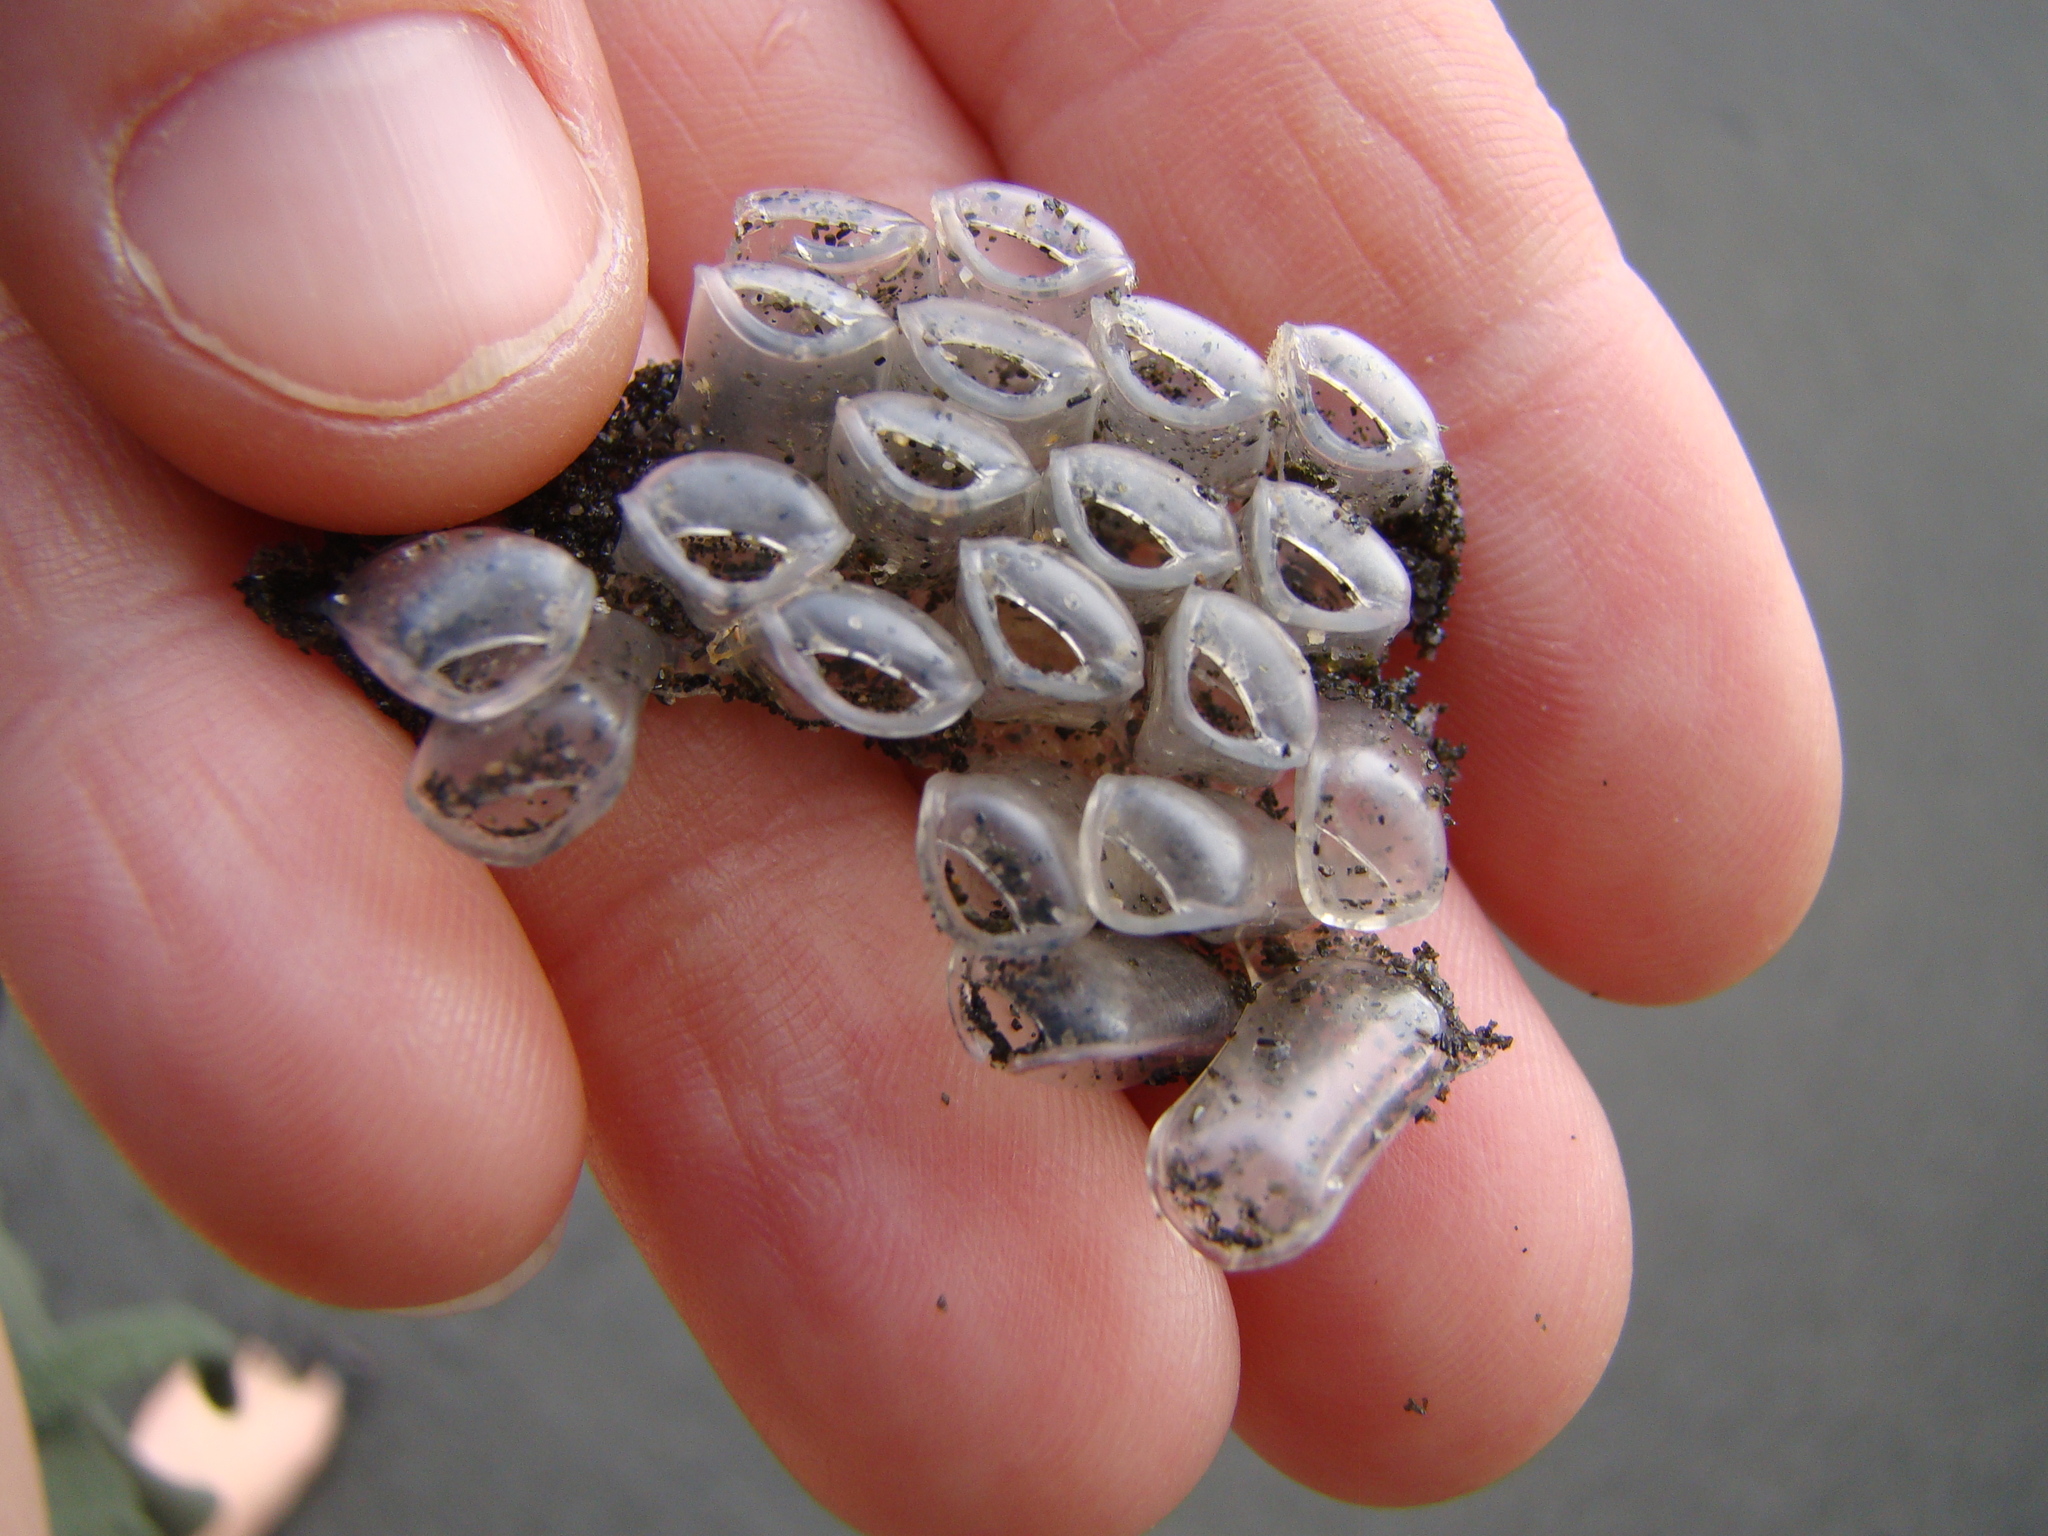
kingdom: Animalia
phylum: Mollusca
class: Gastropoda
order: Littorinimorpha
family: Ranellidae
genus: Ranella
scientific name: Ranella australasia
